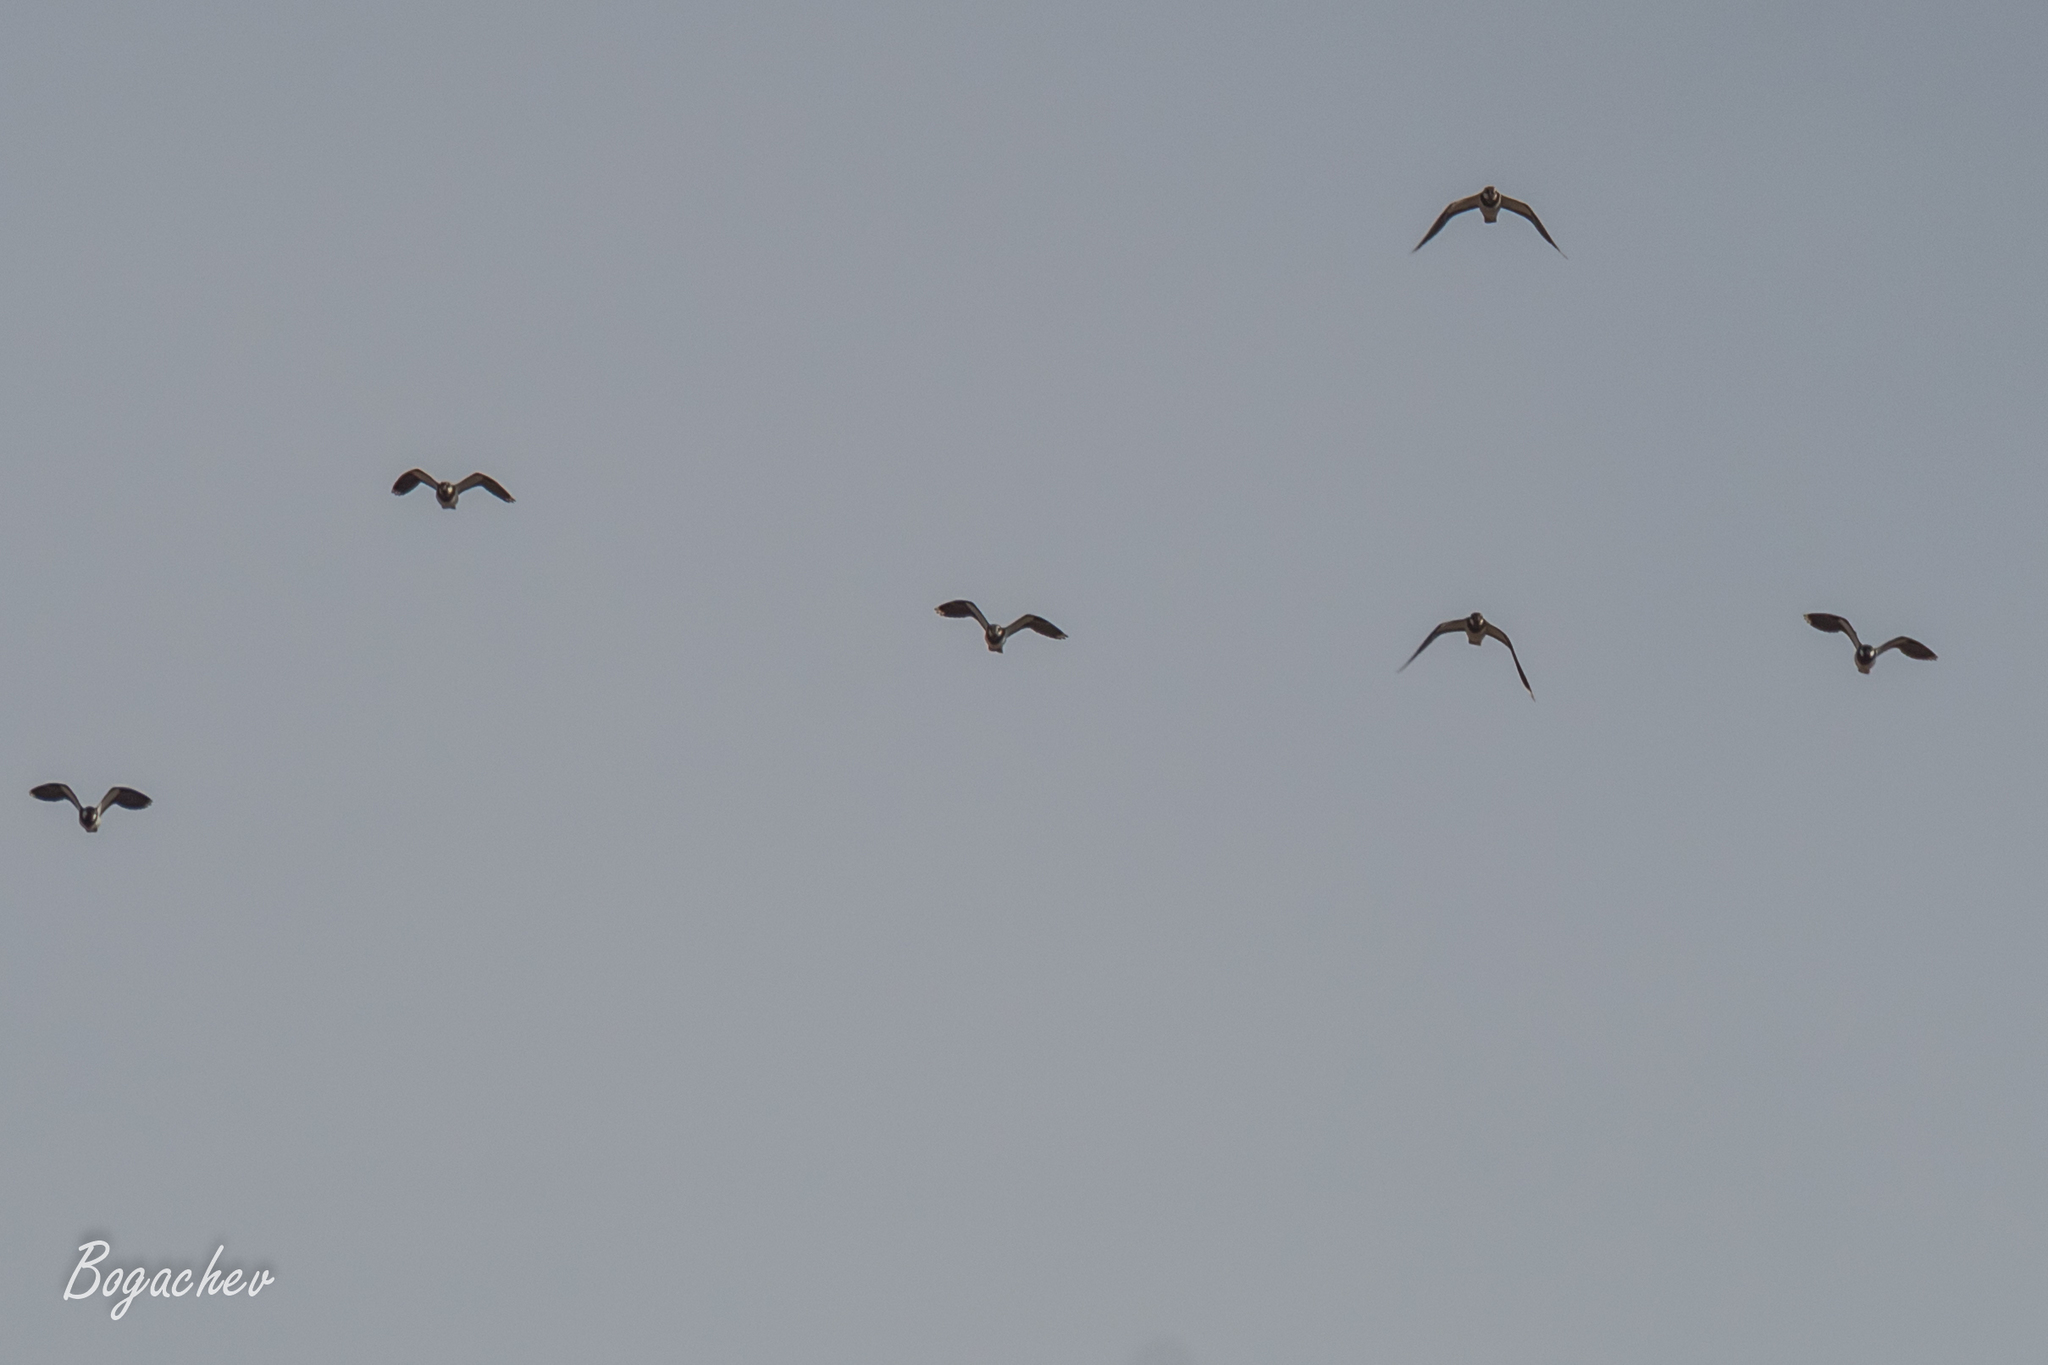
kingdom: Animalia
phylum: Chordata
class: Aves
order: Charadriiformes
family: Charadriidae
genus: Vanellus
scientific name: Vanellus vanellus
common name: Northern lapwing
